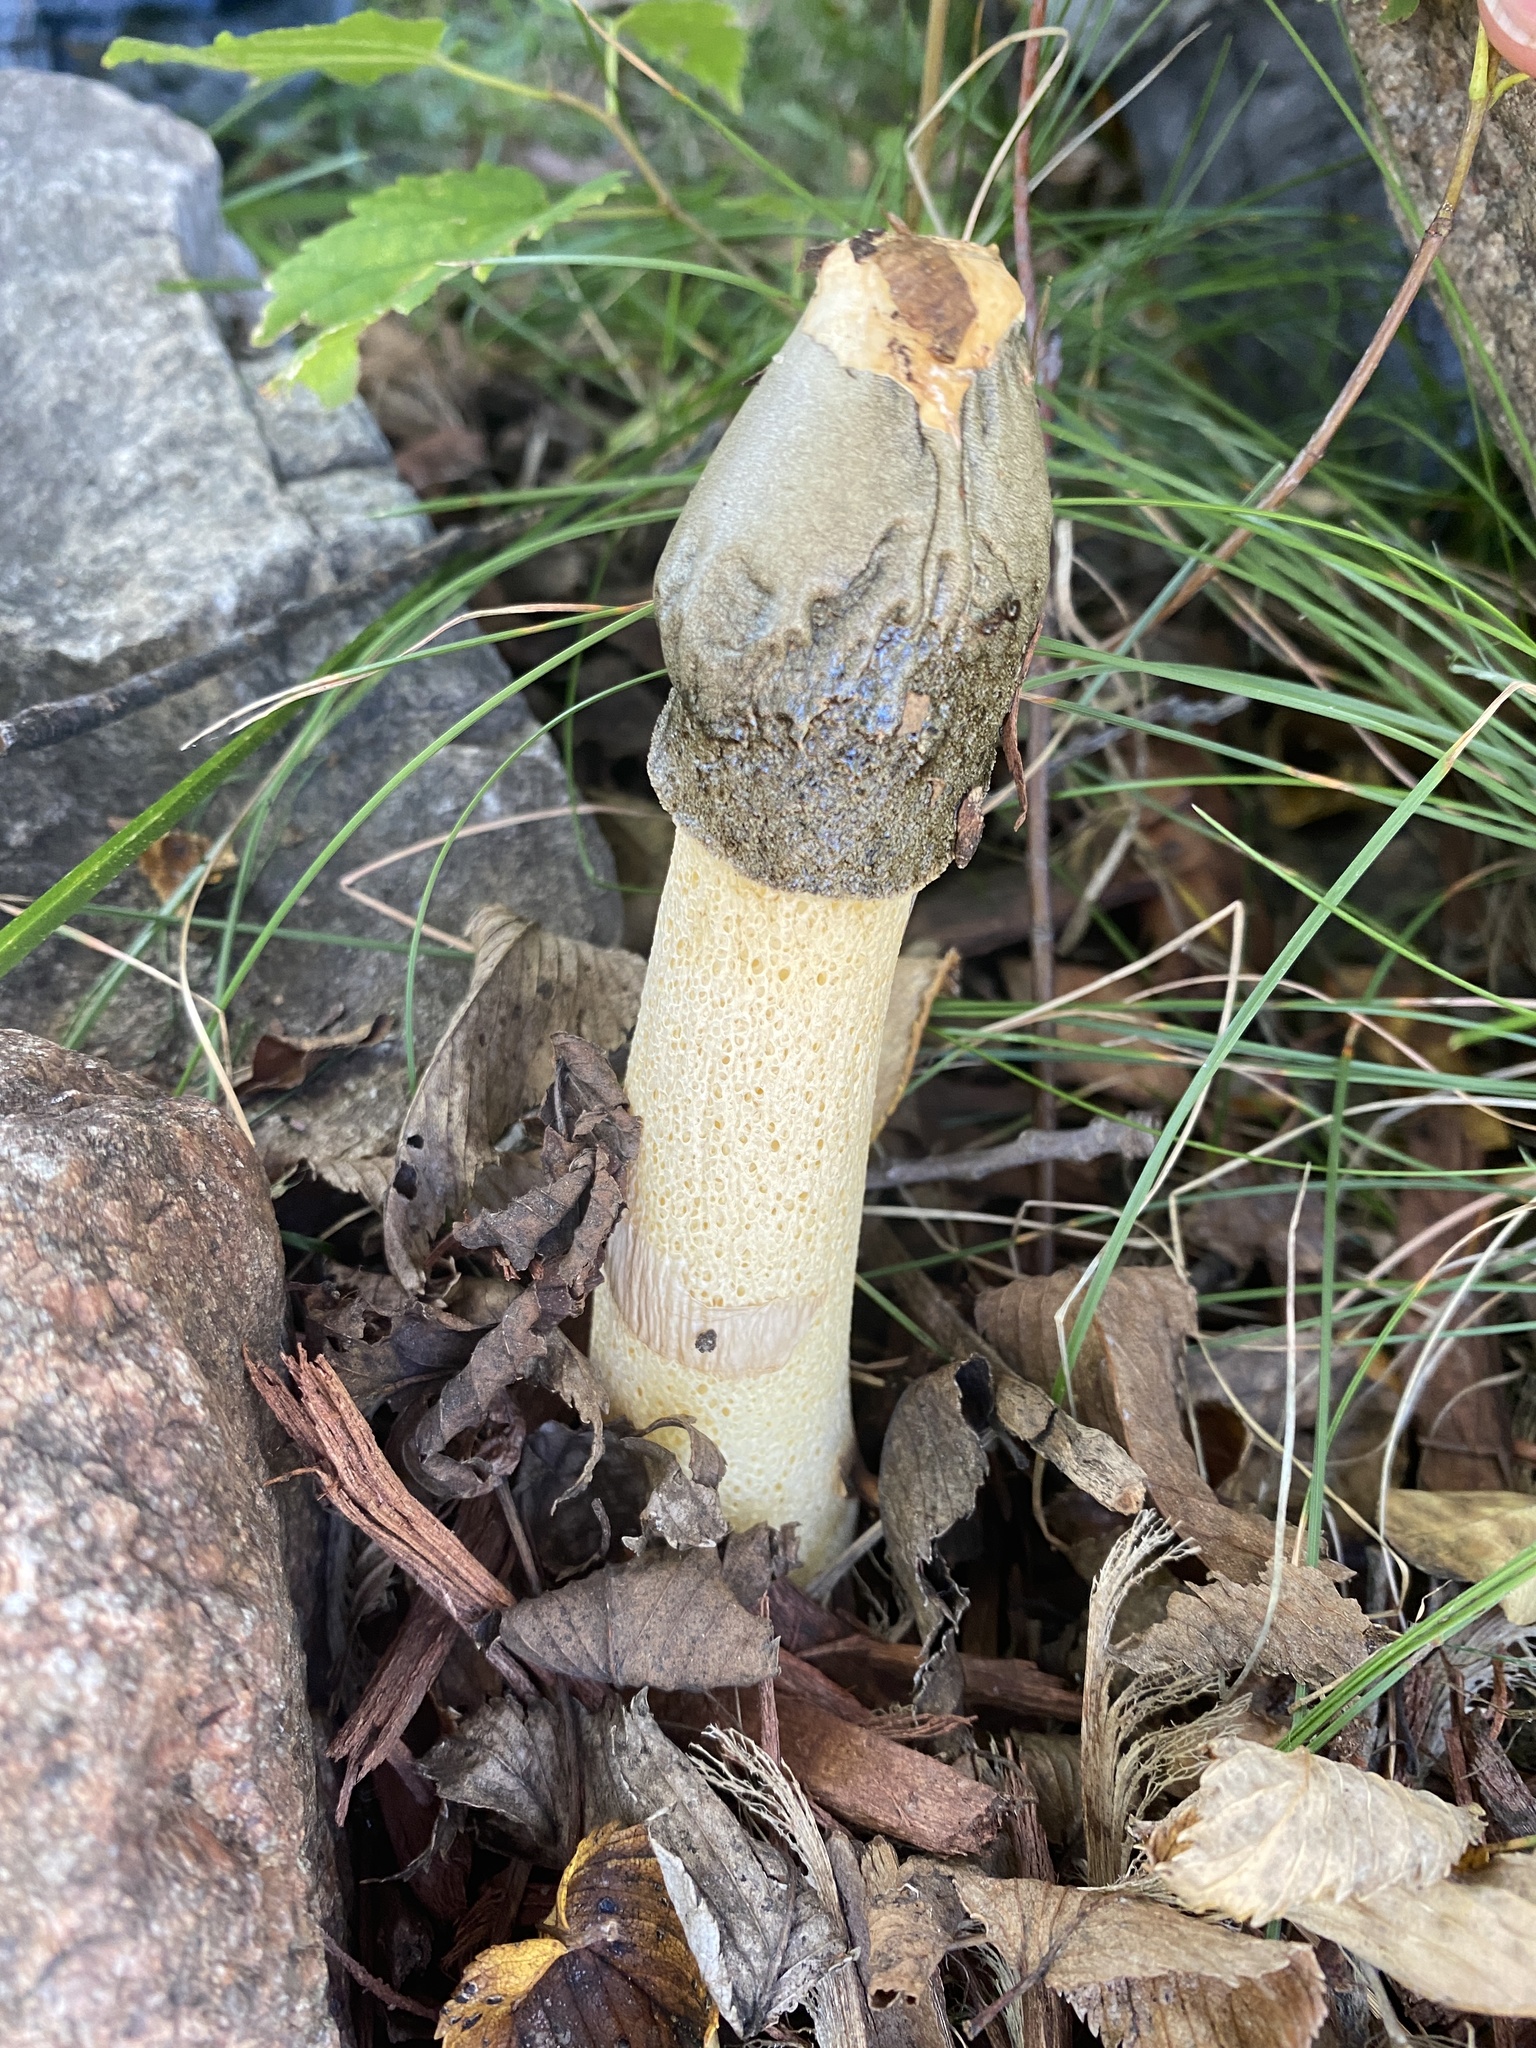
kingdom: Fungi
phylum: Basidiomycota
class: Agaricomycetes
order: Phallales
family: Phallaceae
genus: Phallus
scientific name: Phallus ravenelii
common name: Ravenel's stinkhorn
